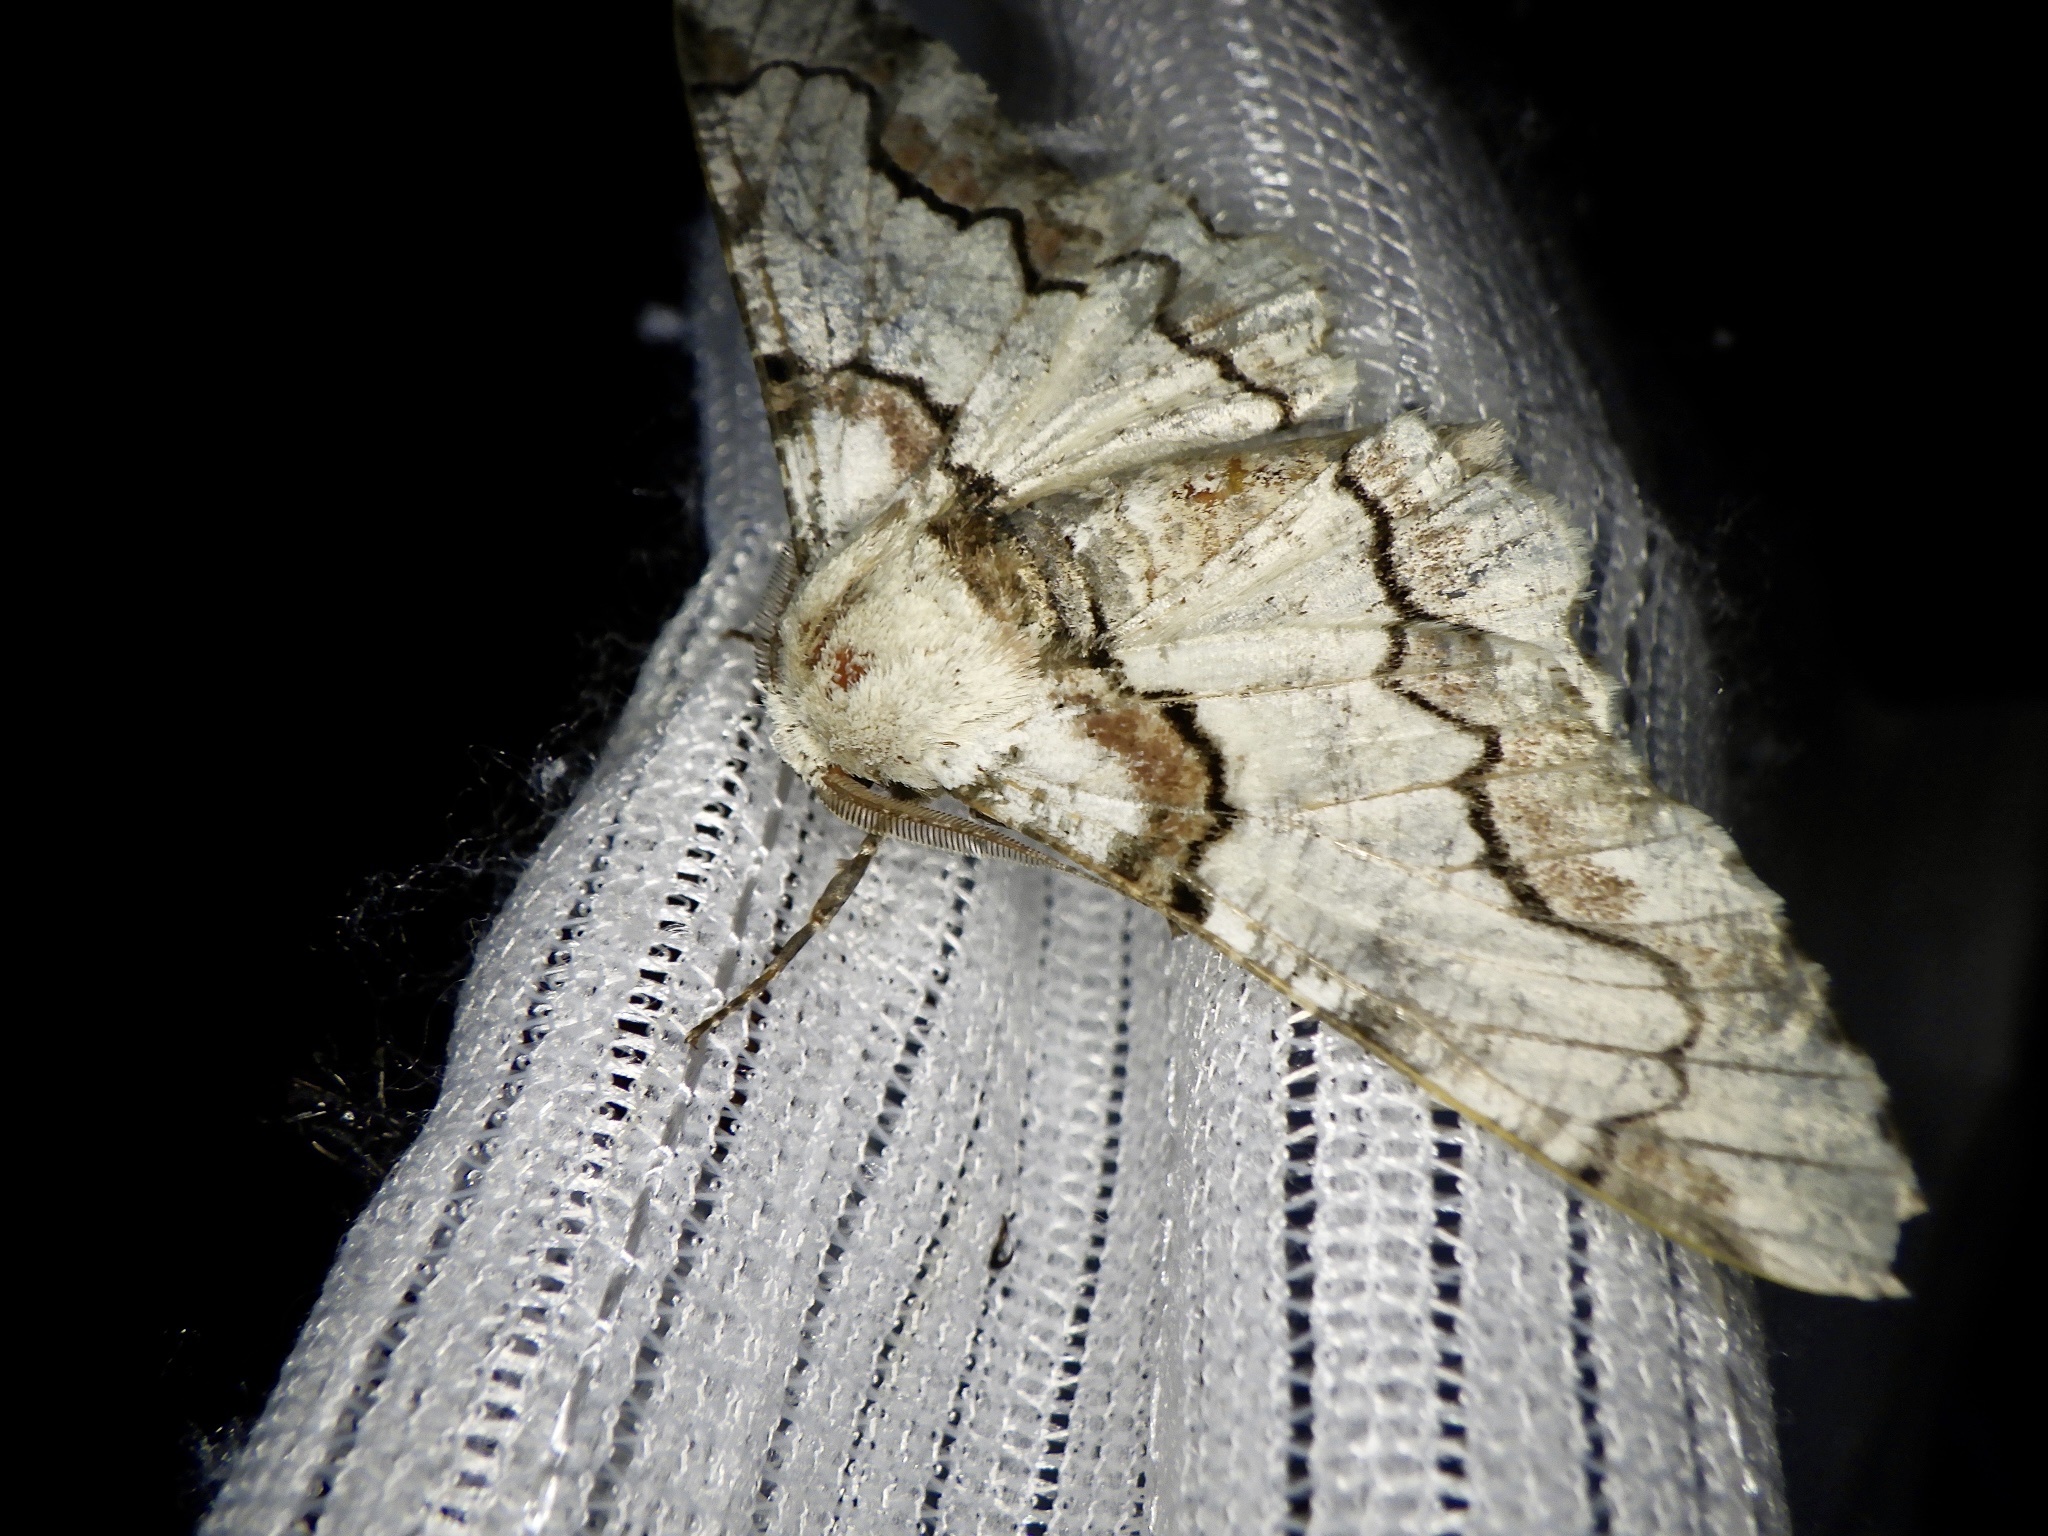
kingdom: Animalia
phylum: Arthropoda
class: Insecta
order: Lepidoptera
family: Geometridae
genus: Biston
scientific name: Biston regalis
